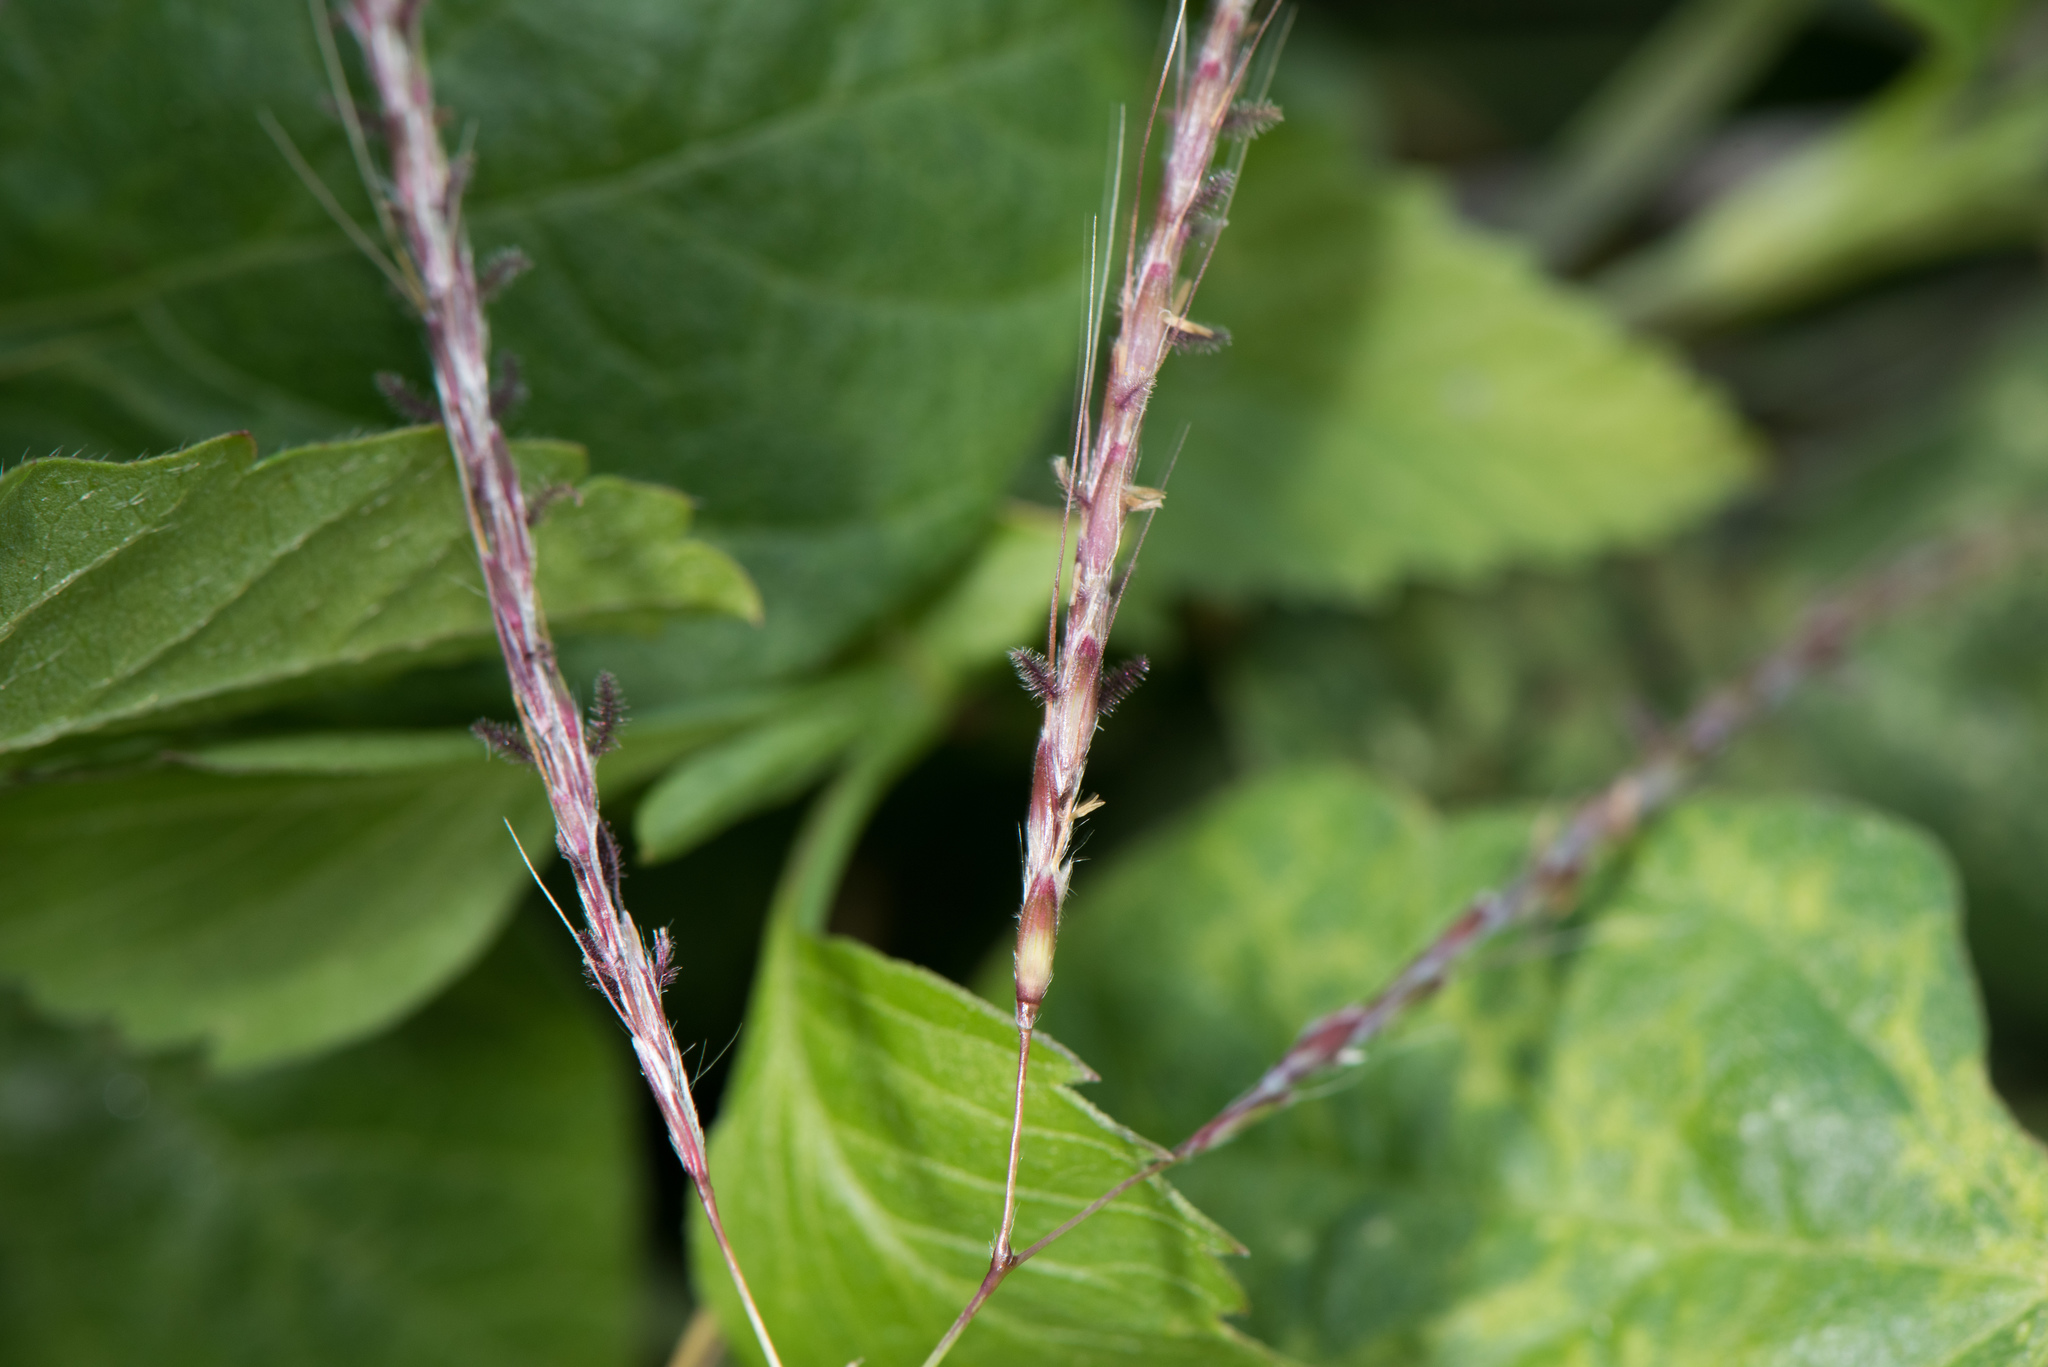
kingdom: Plantae
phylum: Tracheophyta
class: Liliopsida
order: Poales
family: Poaceae
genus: Bothriochloa
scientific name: Bothriochloa ischaemum
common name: Yellow bluestem
